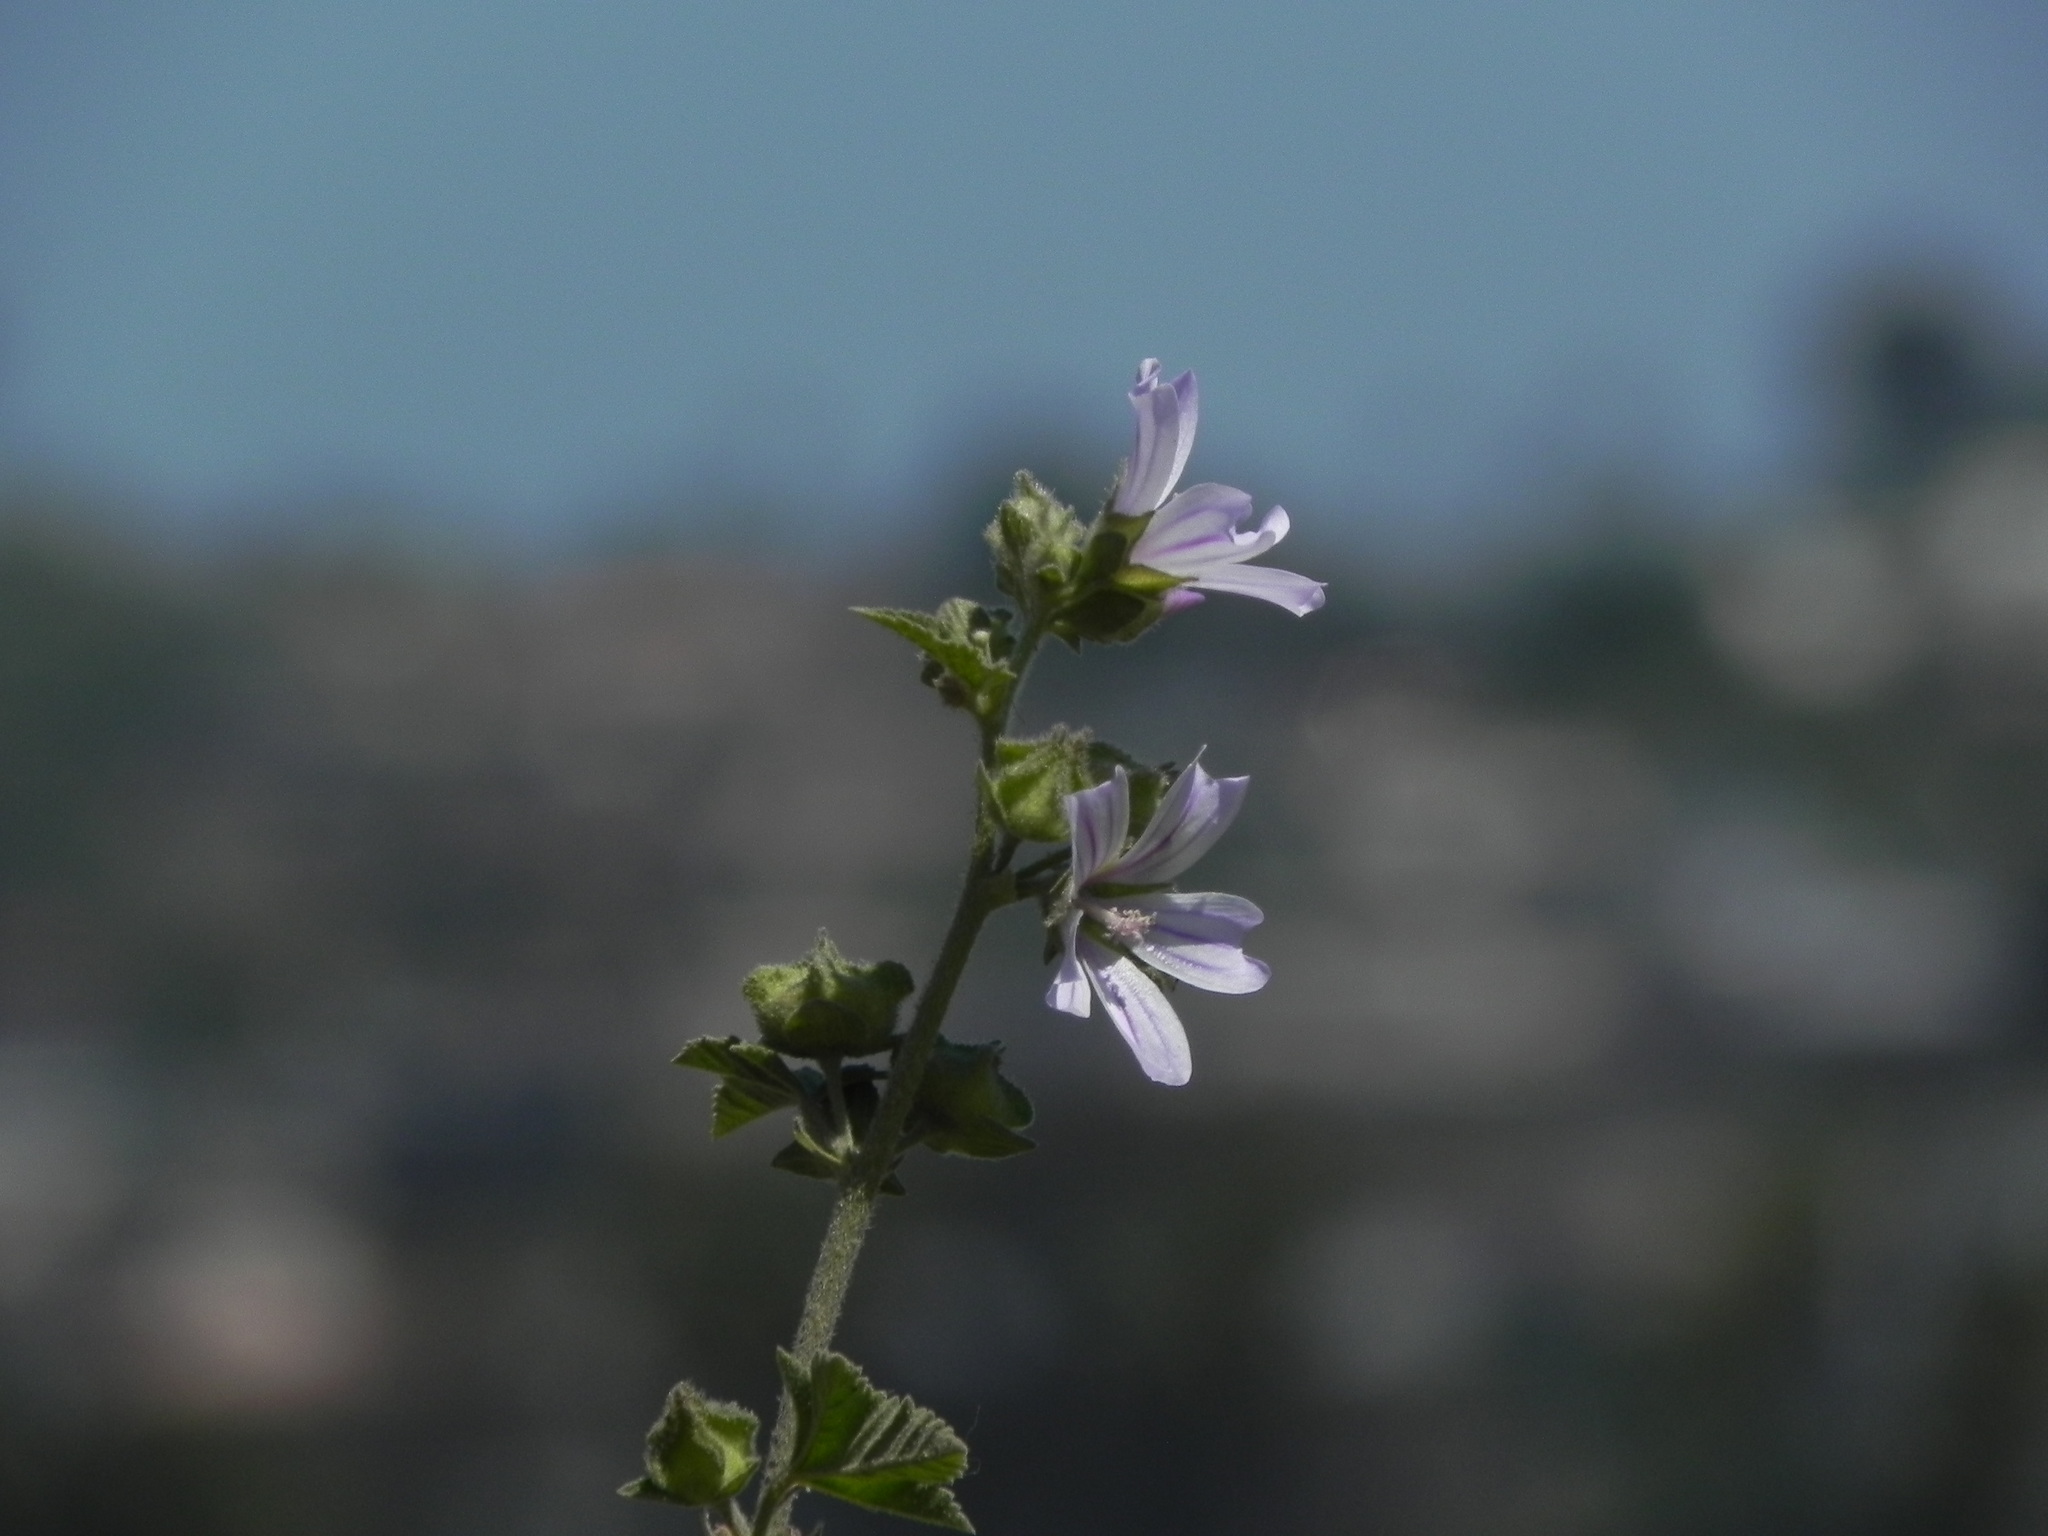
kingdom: Plantae
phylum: Tracheophyta
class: Magnoliopsida
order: Malvales
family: Malvaceae
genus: Malva
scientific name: Malva multiflora
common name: Cheeseweed
